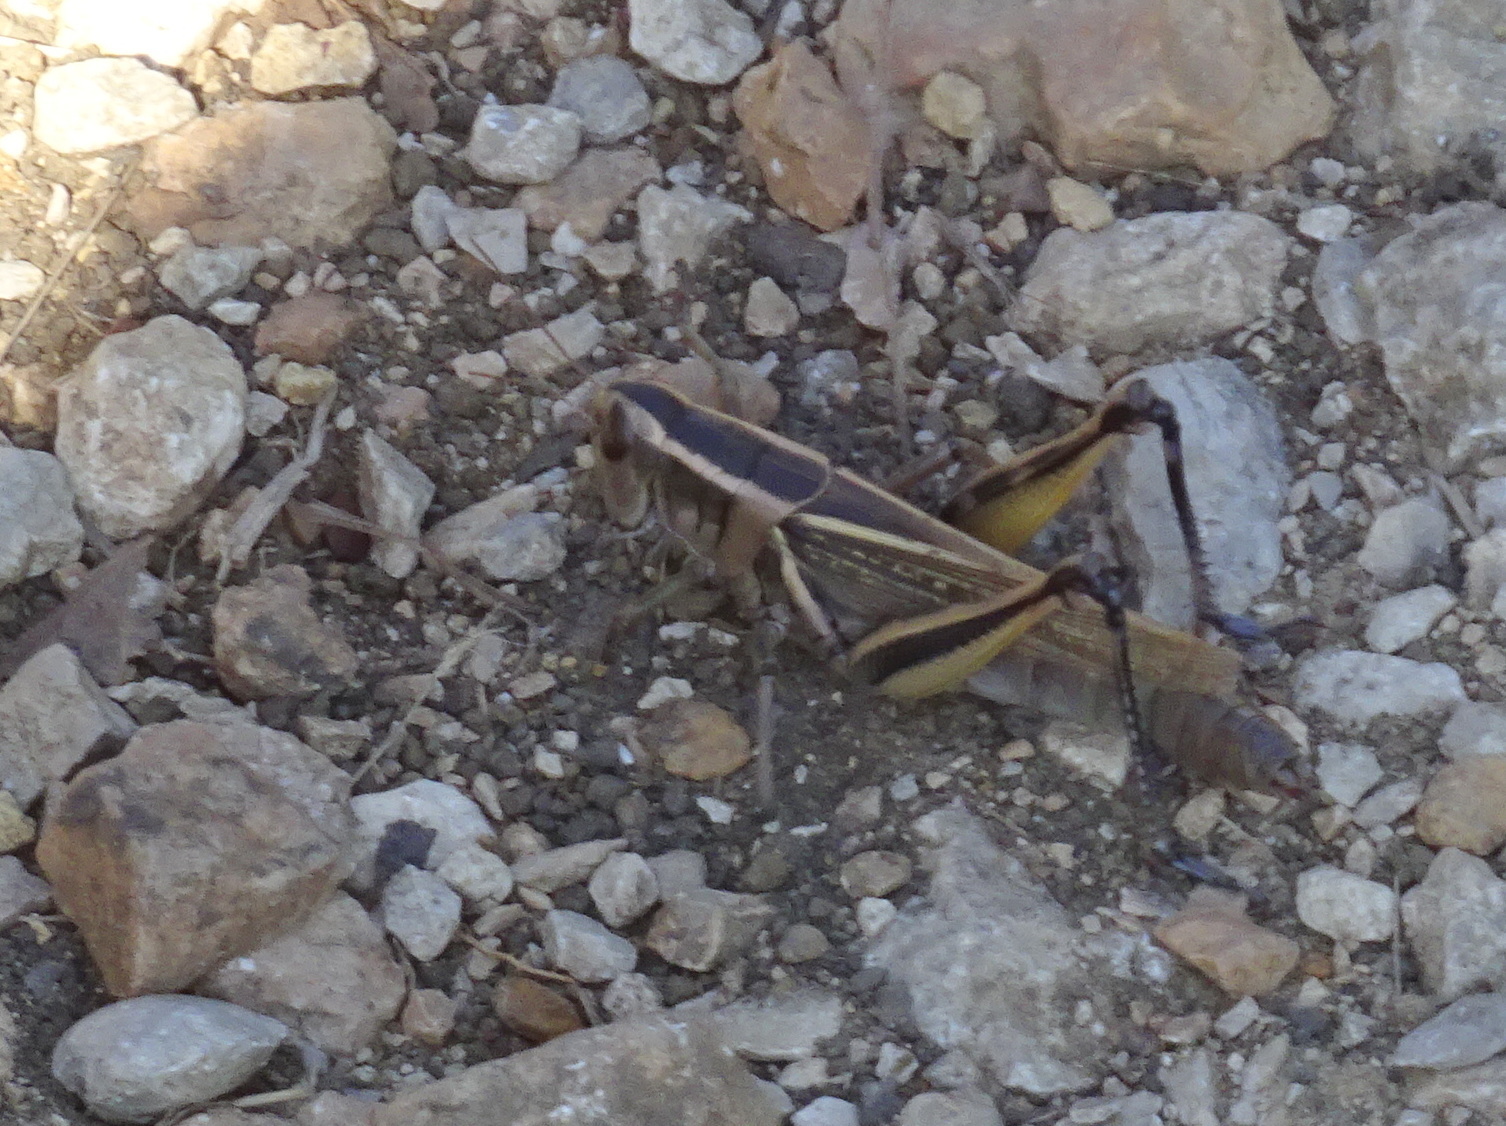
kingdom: Animalia
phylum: Arthropoda
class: Insecta
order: Orthoptera
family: Acrididae
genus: Melanoplus
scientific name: Melanoplus bivittatus
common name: Two-striped grasshopper
